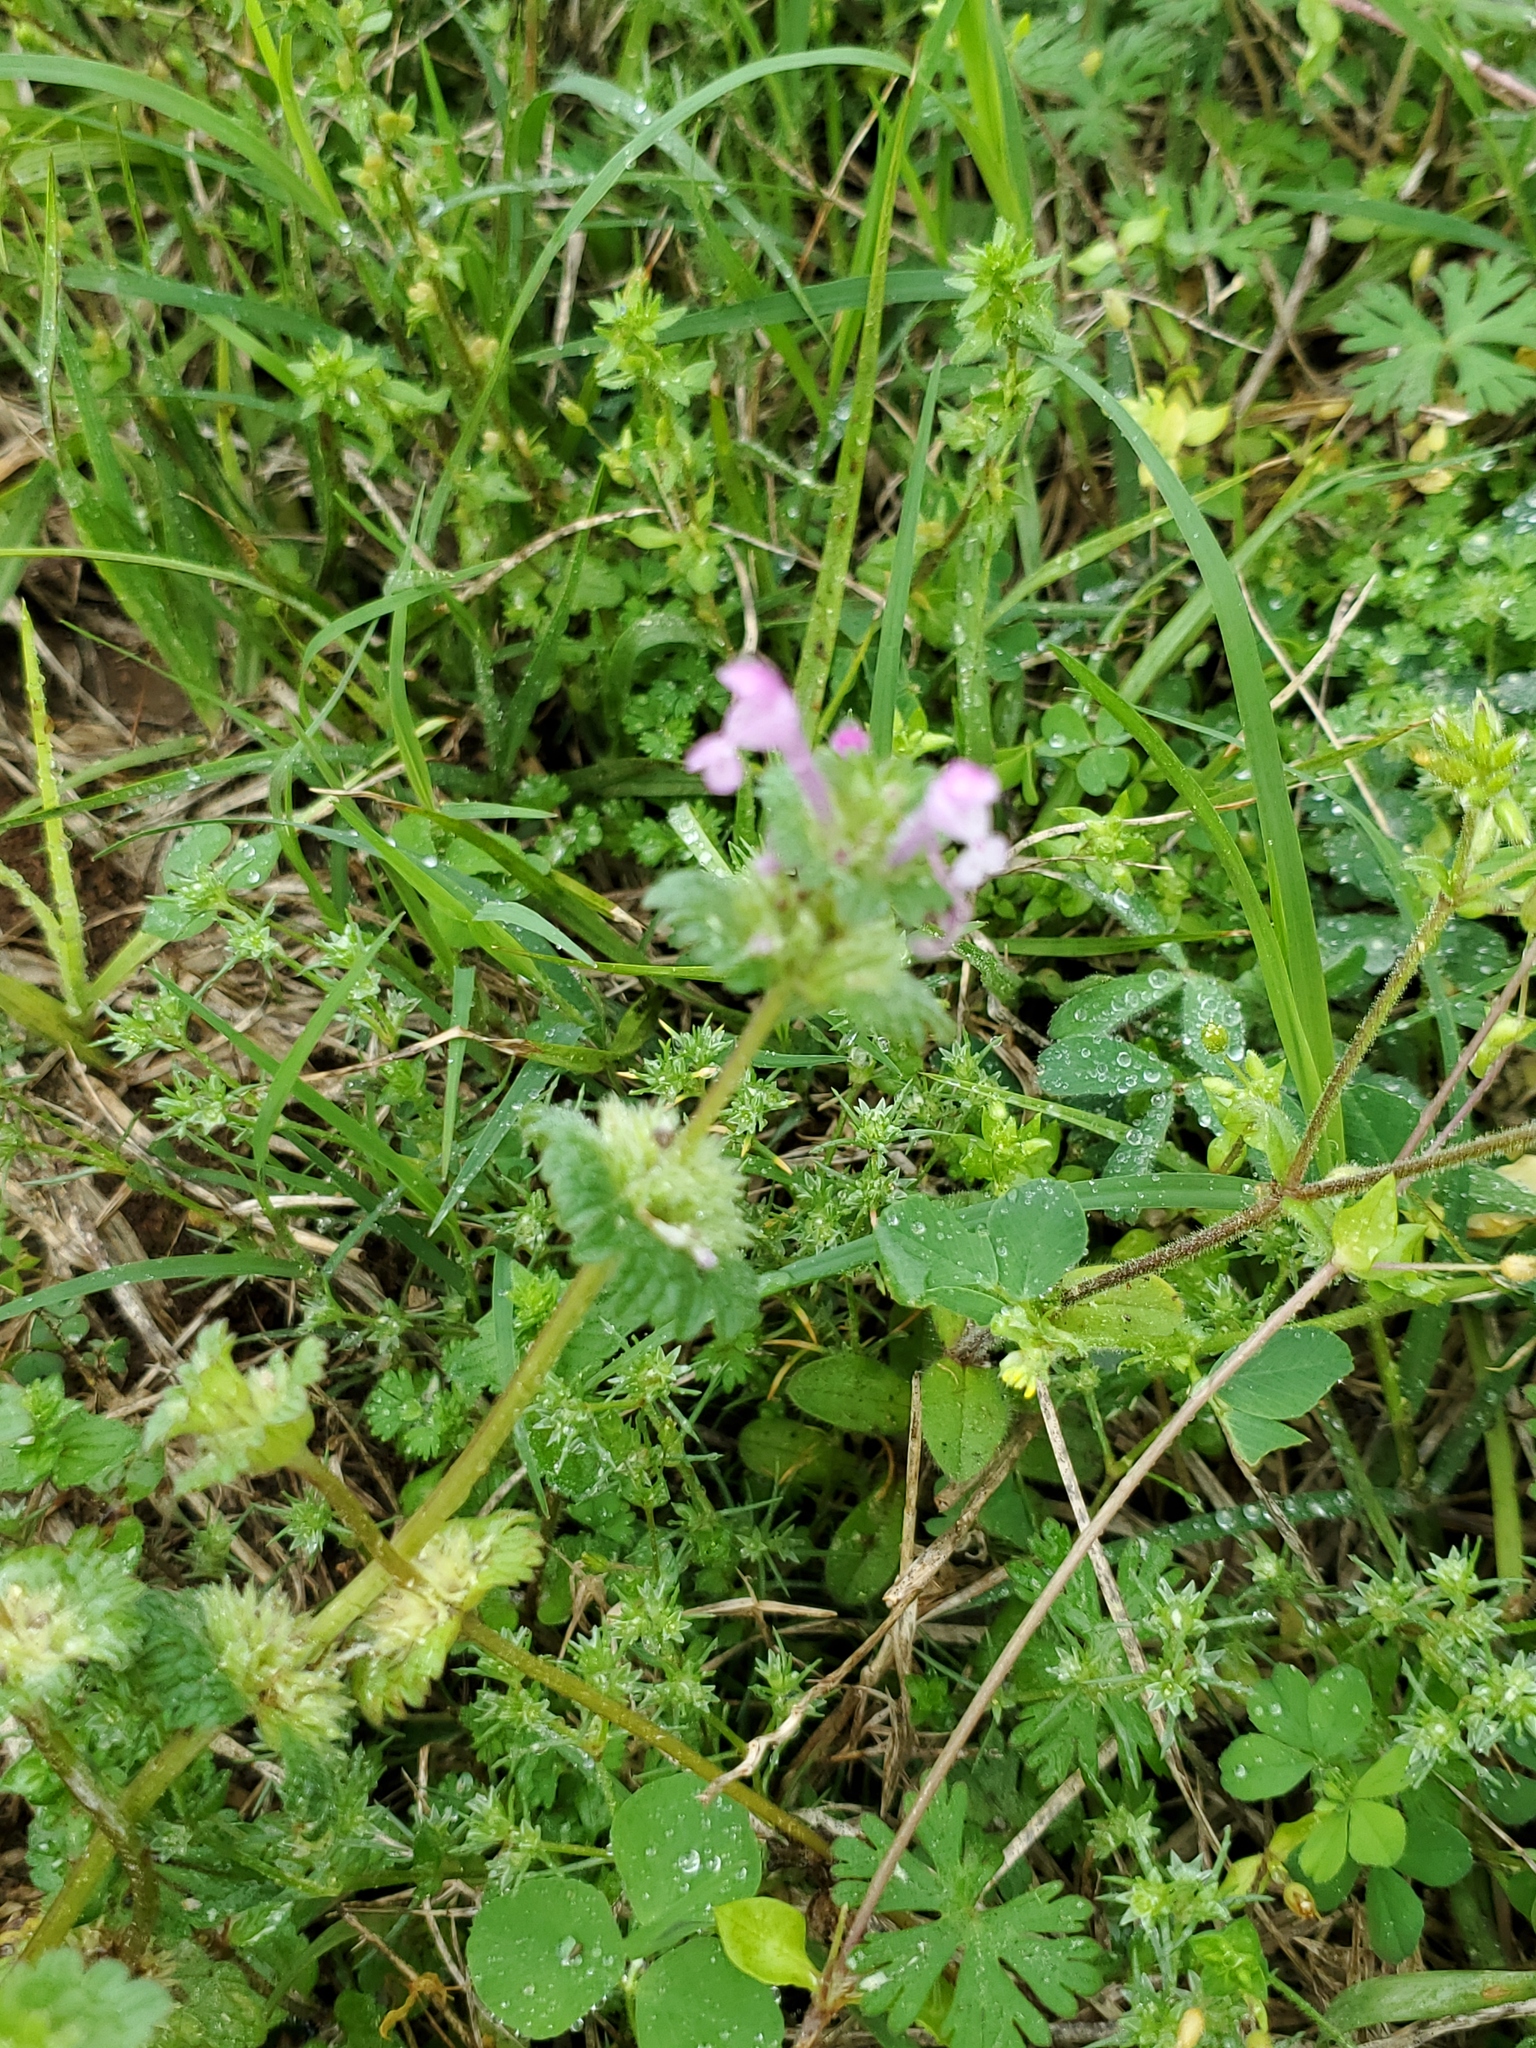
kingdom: Plantae
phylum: Tracheophyta
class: Magnoliopsida
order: Lamiales
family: Lamiaceae
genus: Lamium
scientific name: Lamium amplexicaule
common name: Henbit dead-nettle
